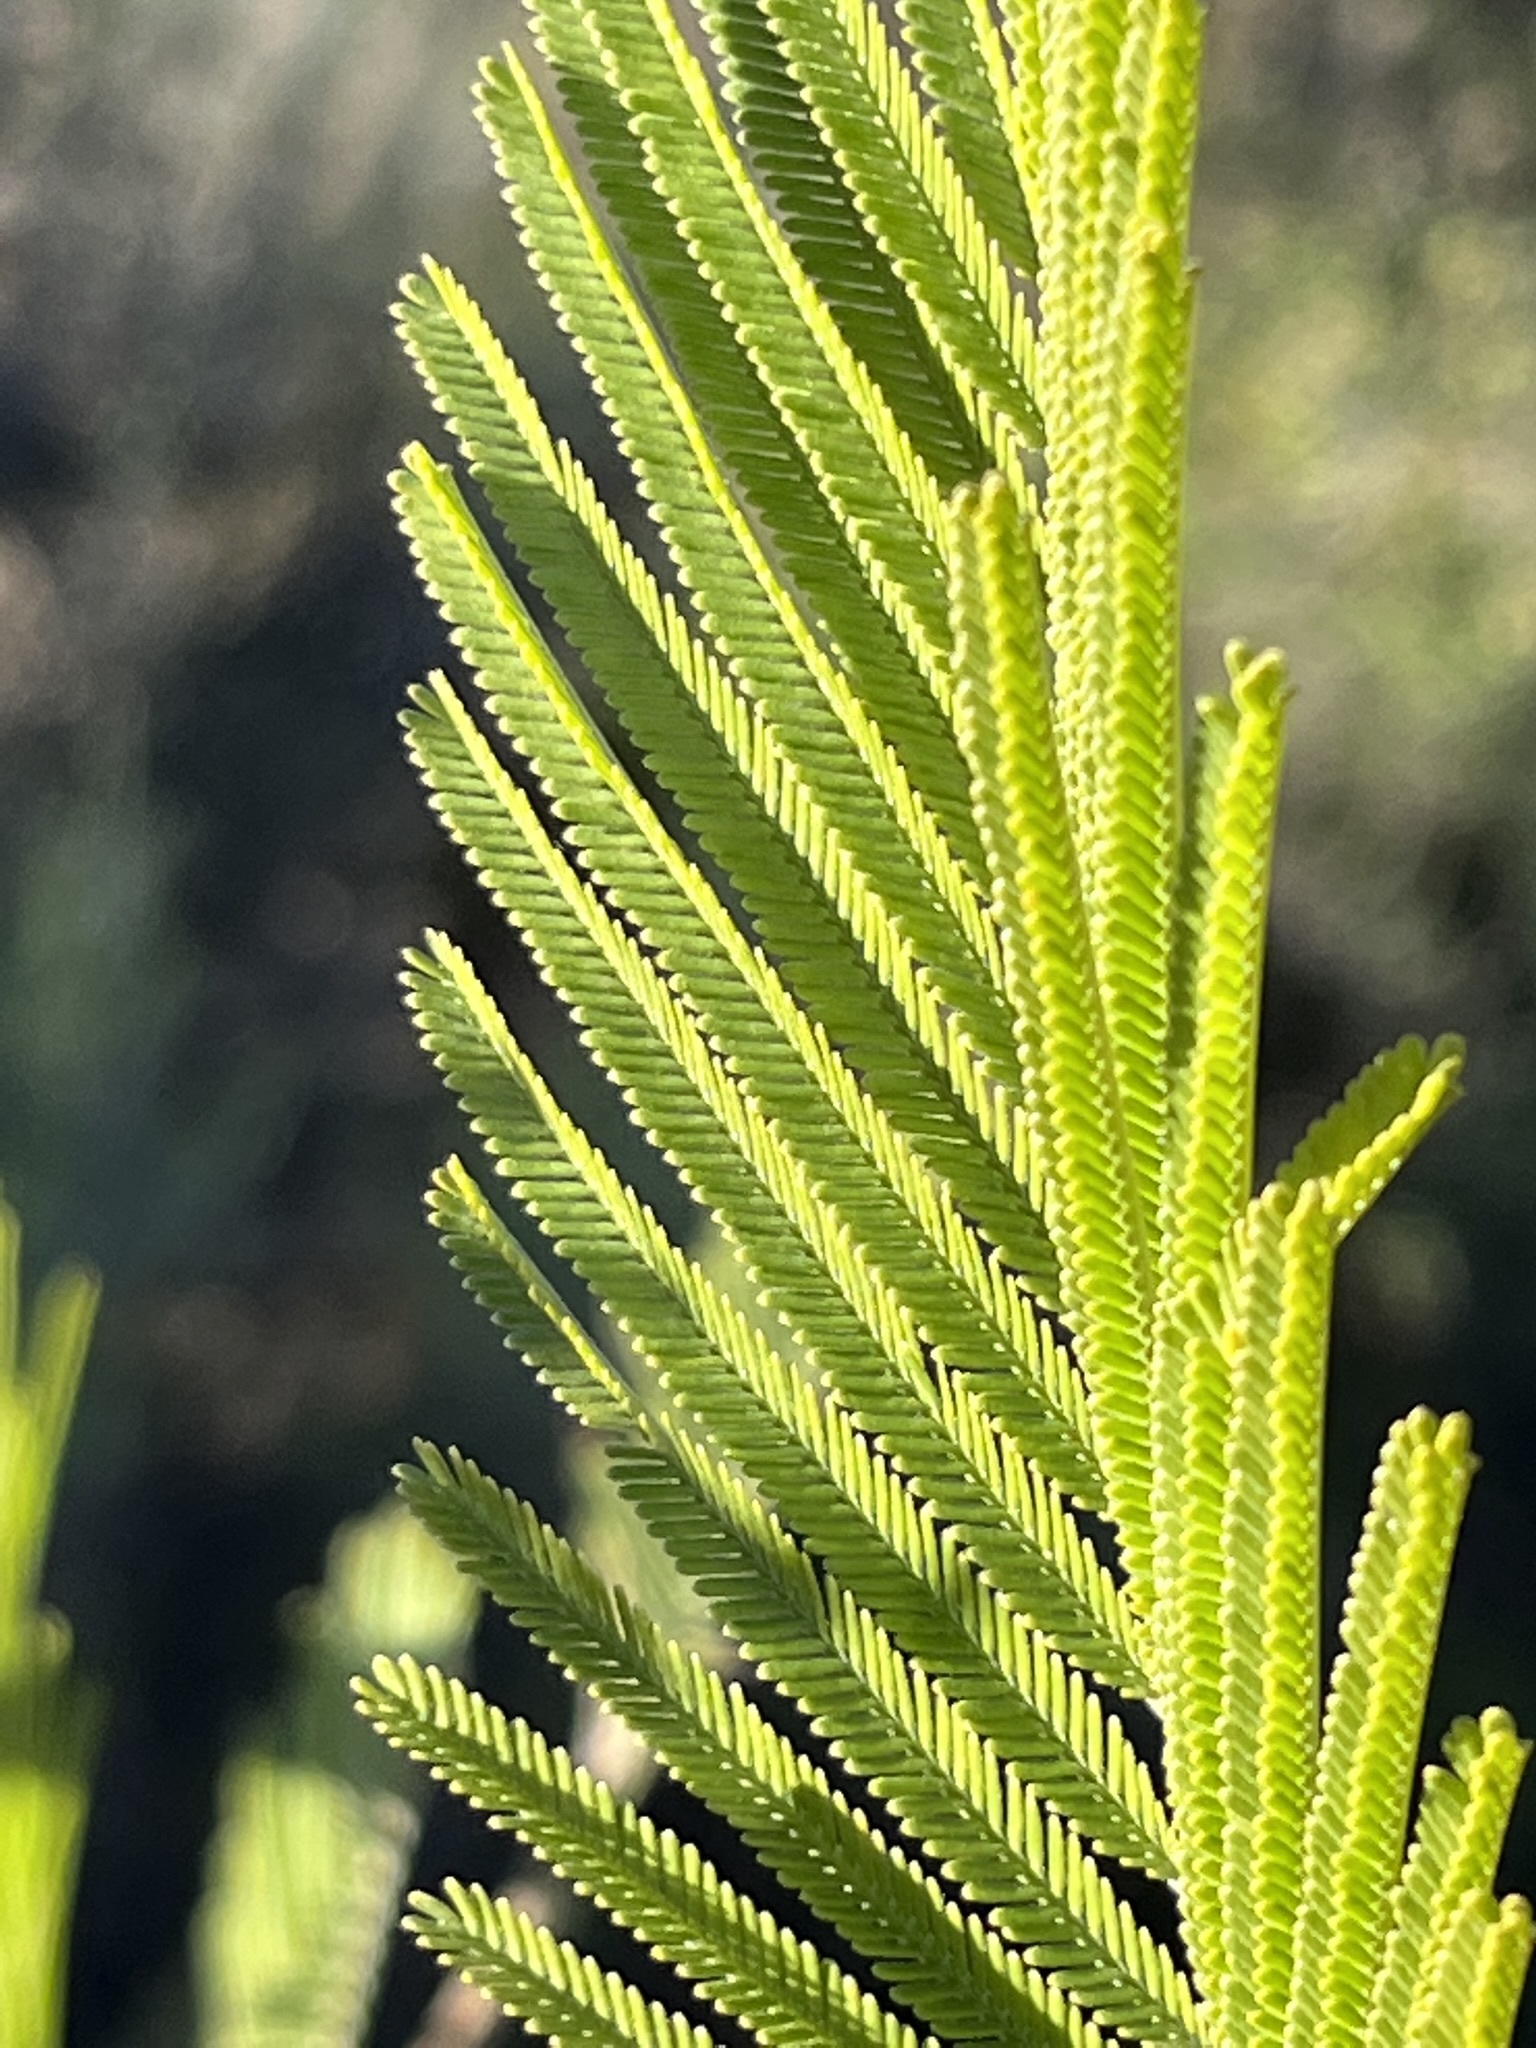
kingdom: Plantae
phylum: Tracheophyta
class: Magnoliopsida
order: Fabales
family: Fabaceae
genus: Acacia
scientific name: Acacia mearnsii
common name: Black wattle
